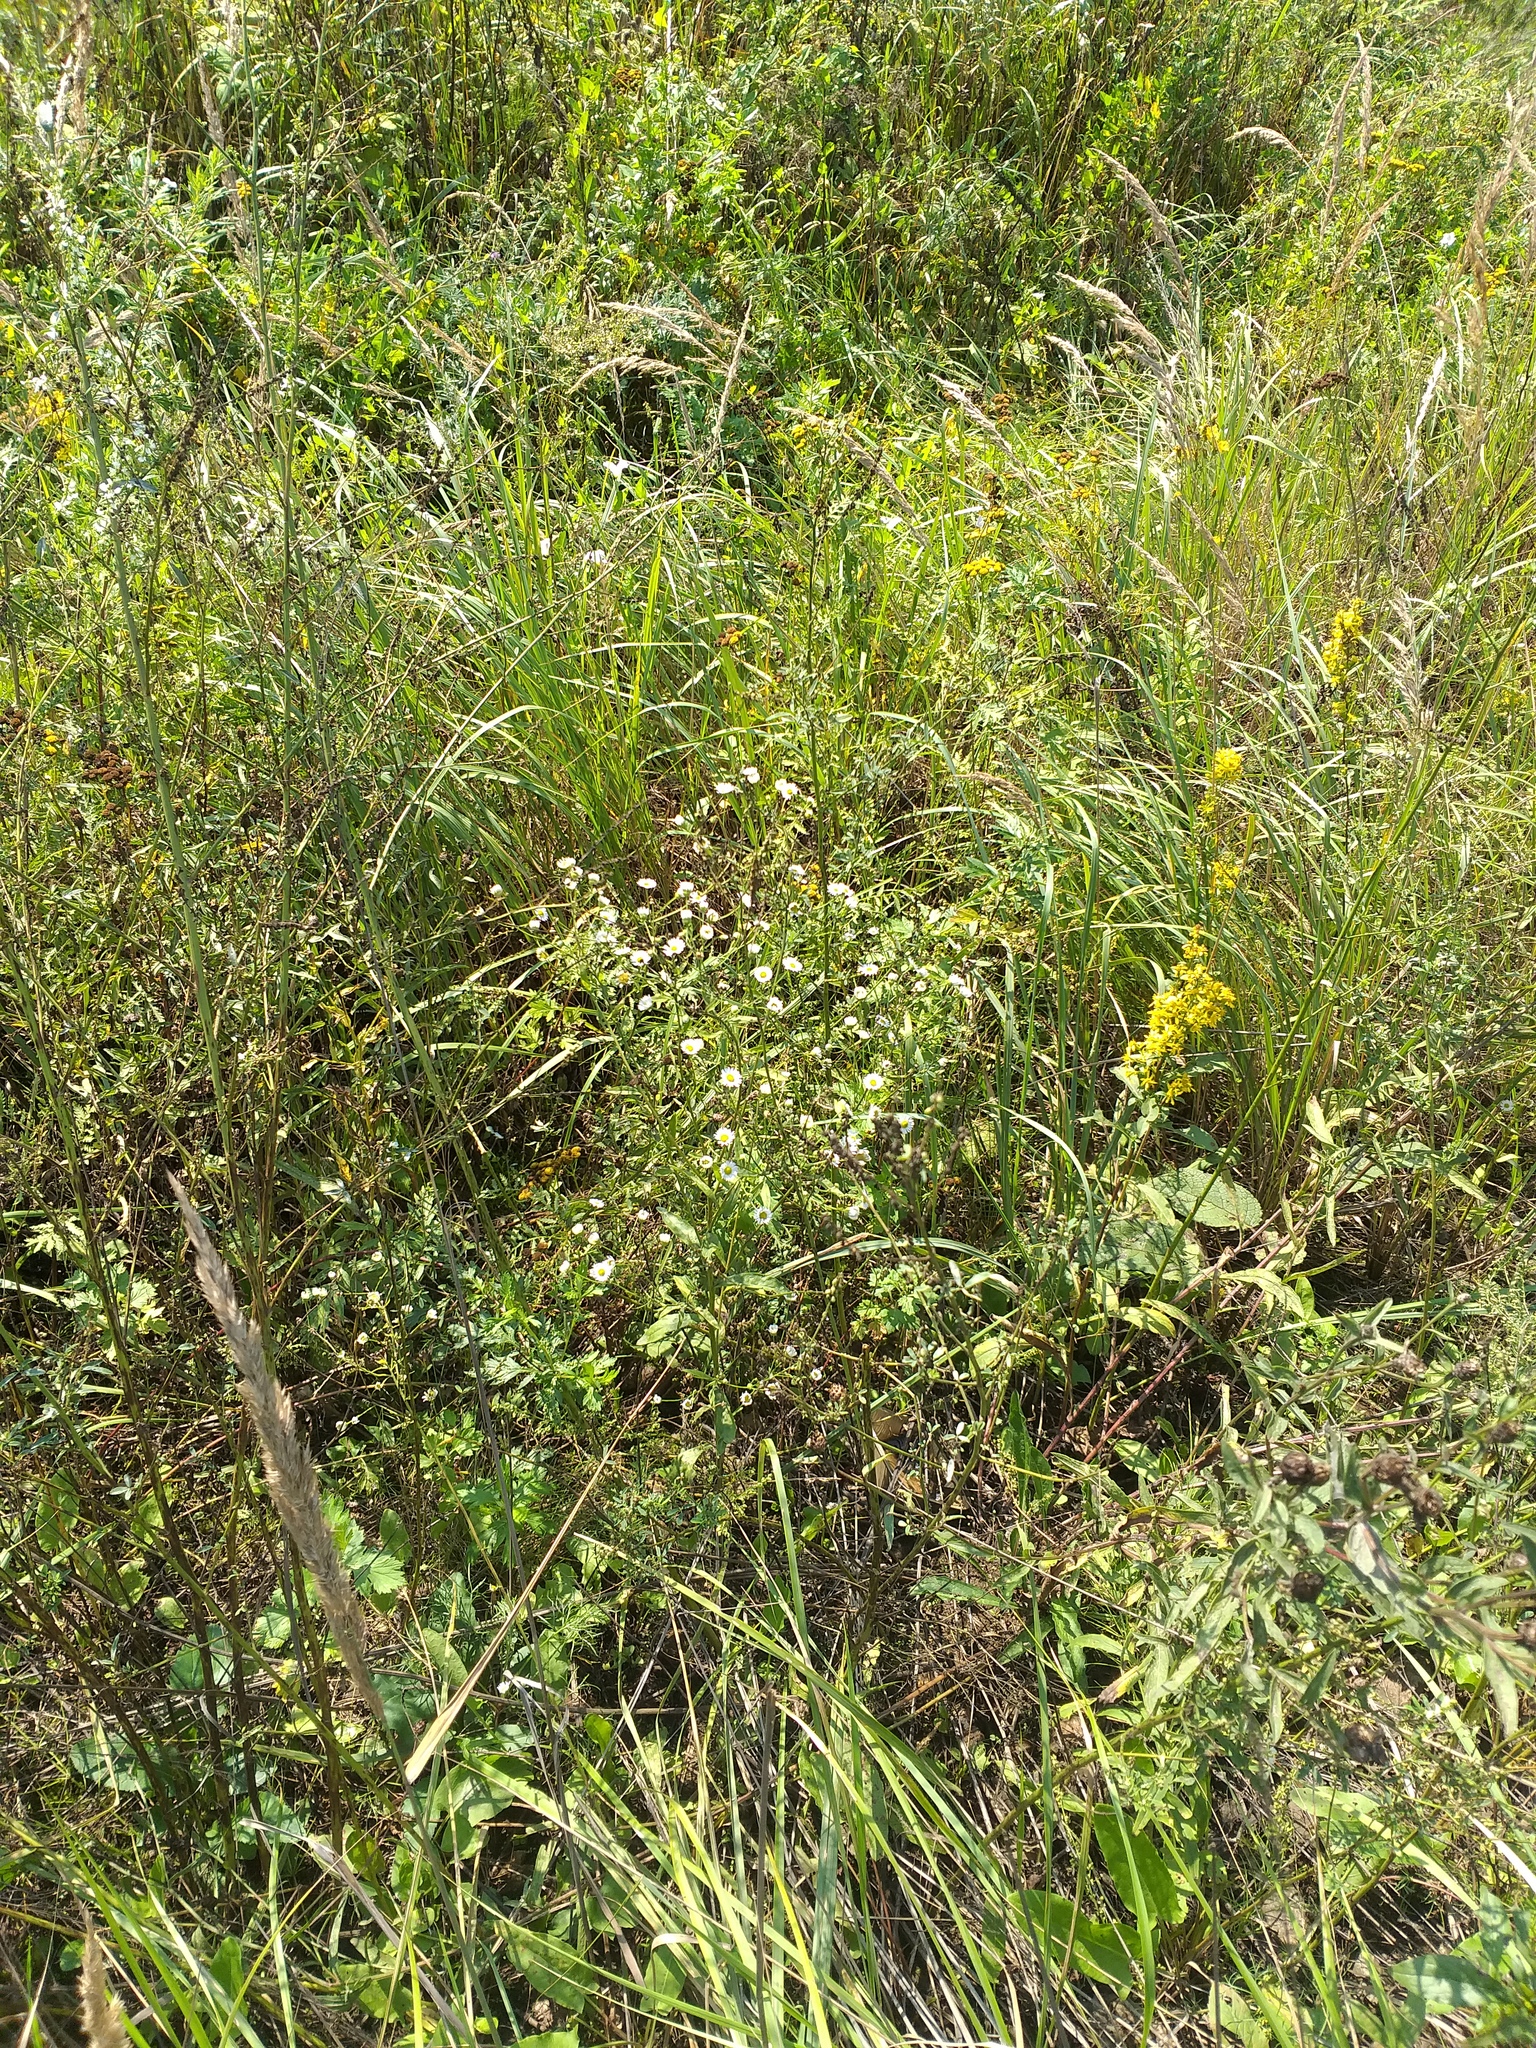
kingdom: Plantae
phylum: Tracheophyta
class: Magnoliopsida
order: Asterales
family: Asteraceae
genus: Erigeron
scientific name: Erigeron annuus
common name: Tall fleabane
